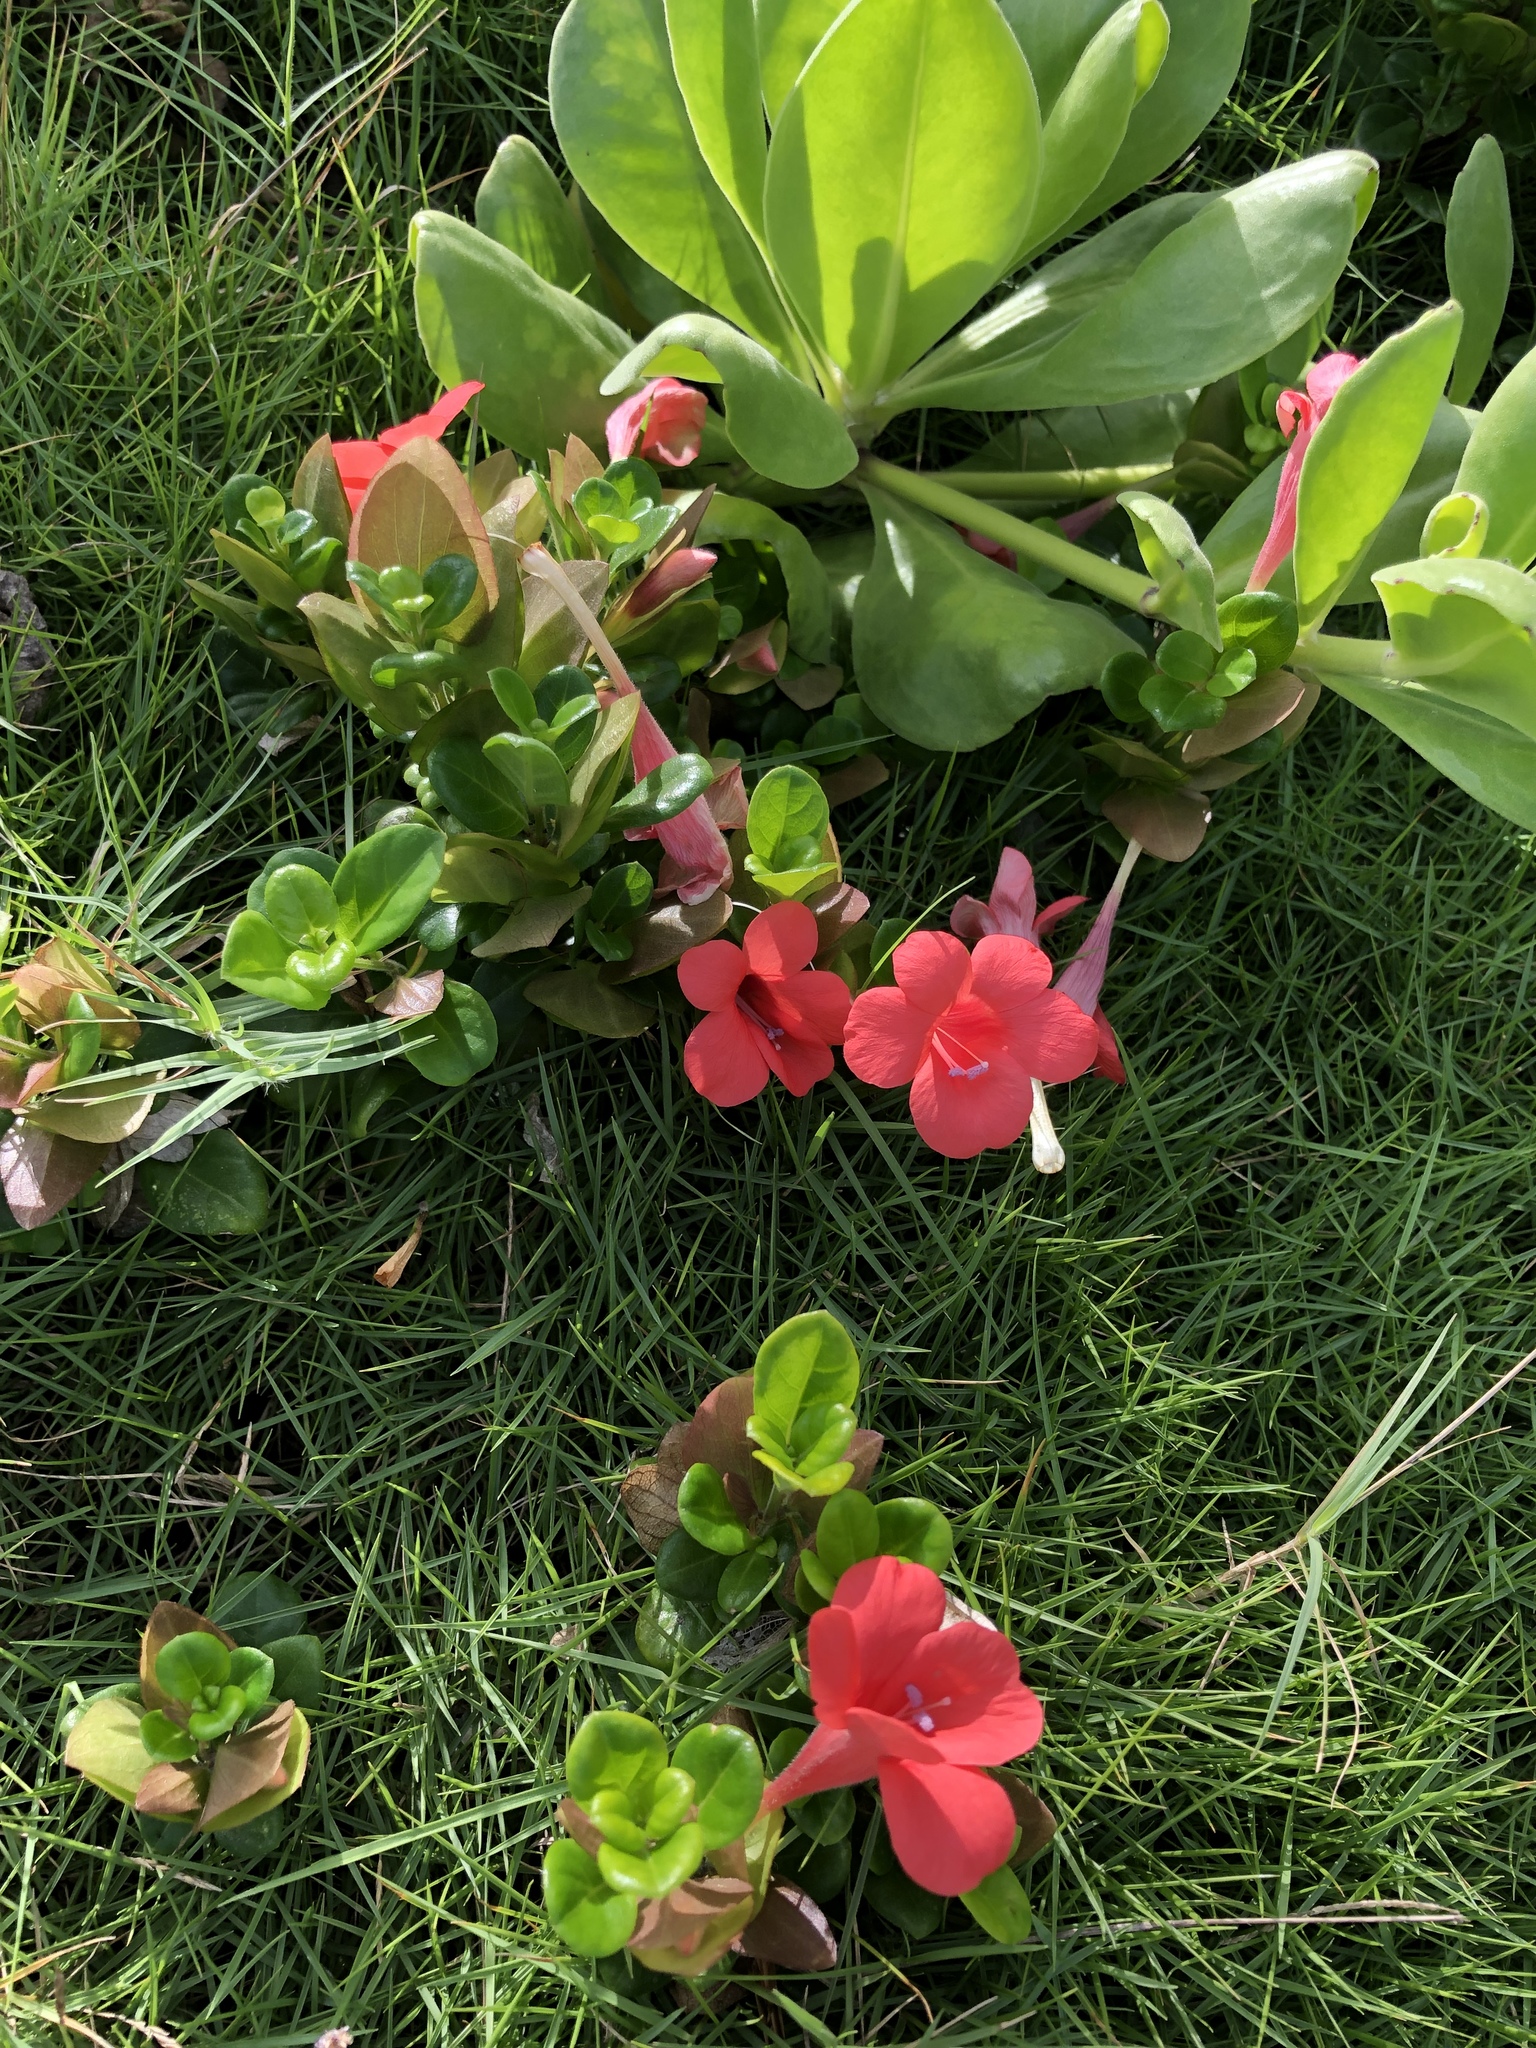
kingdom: Plantae
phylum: Tracheophyta
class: Magnoliopsida
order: Lamiales
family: Acanthaceae
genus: Barleria
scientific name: Barleria repens
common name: Pink-ruellia
